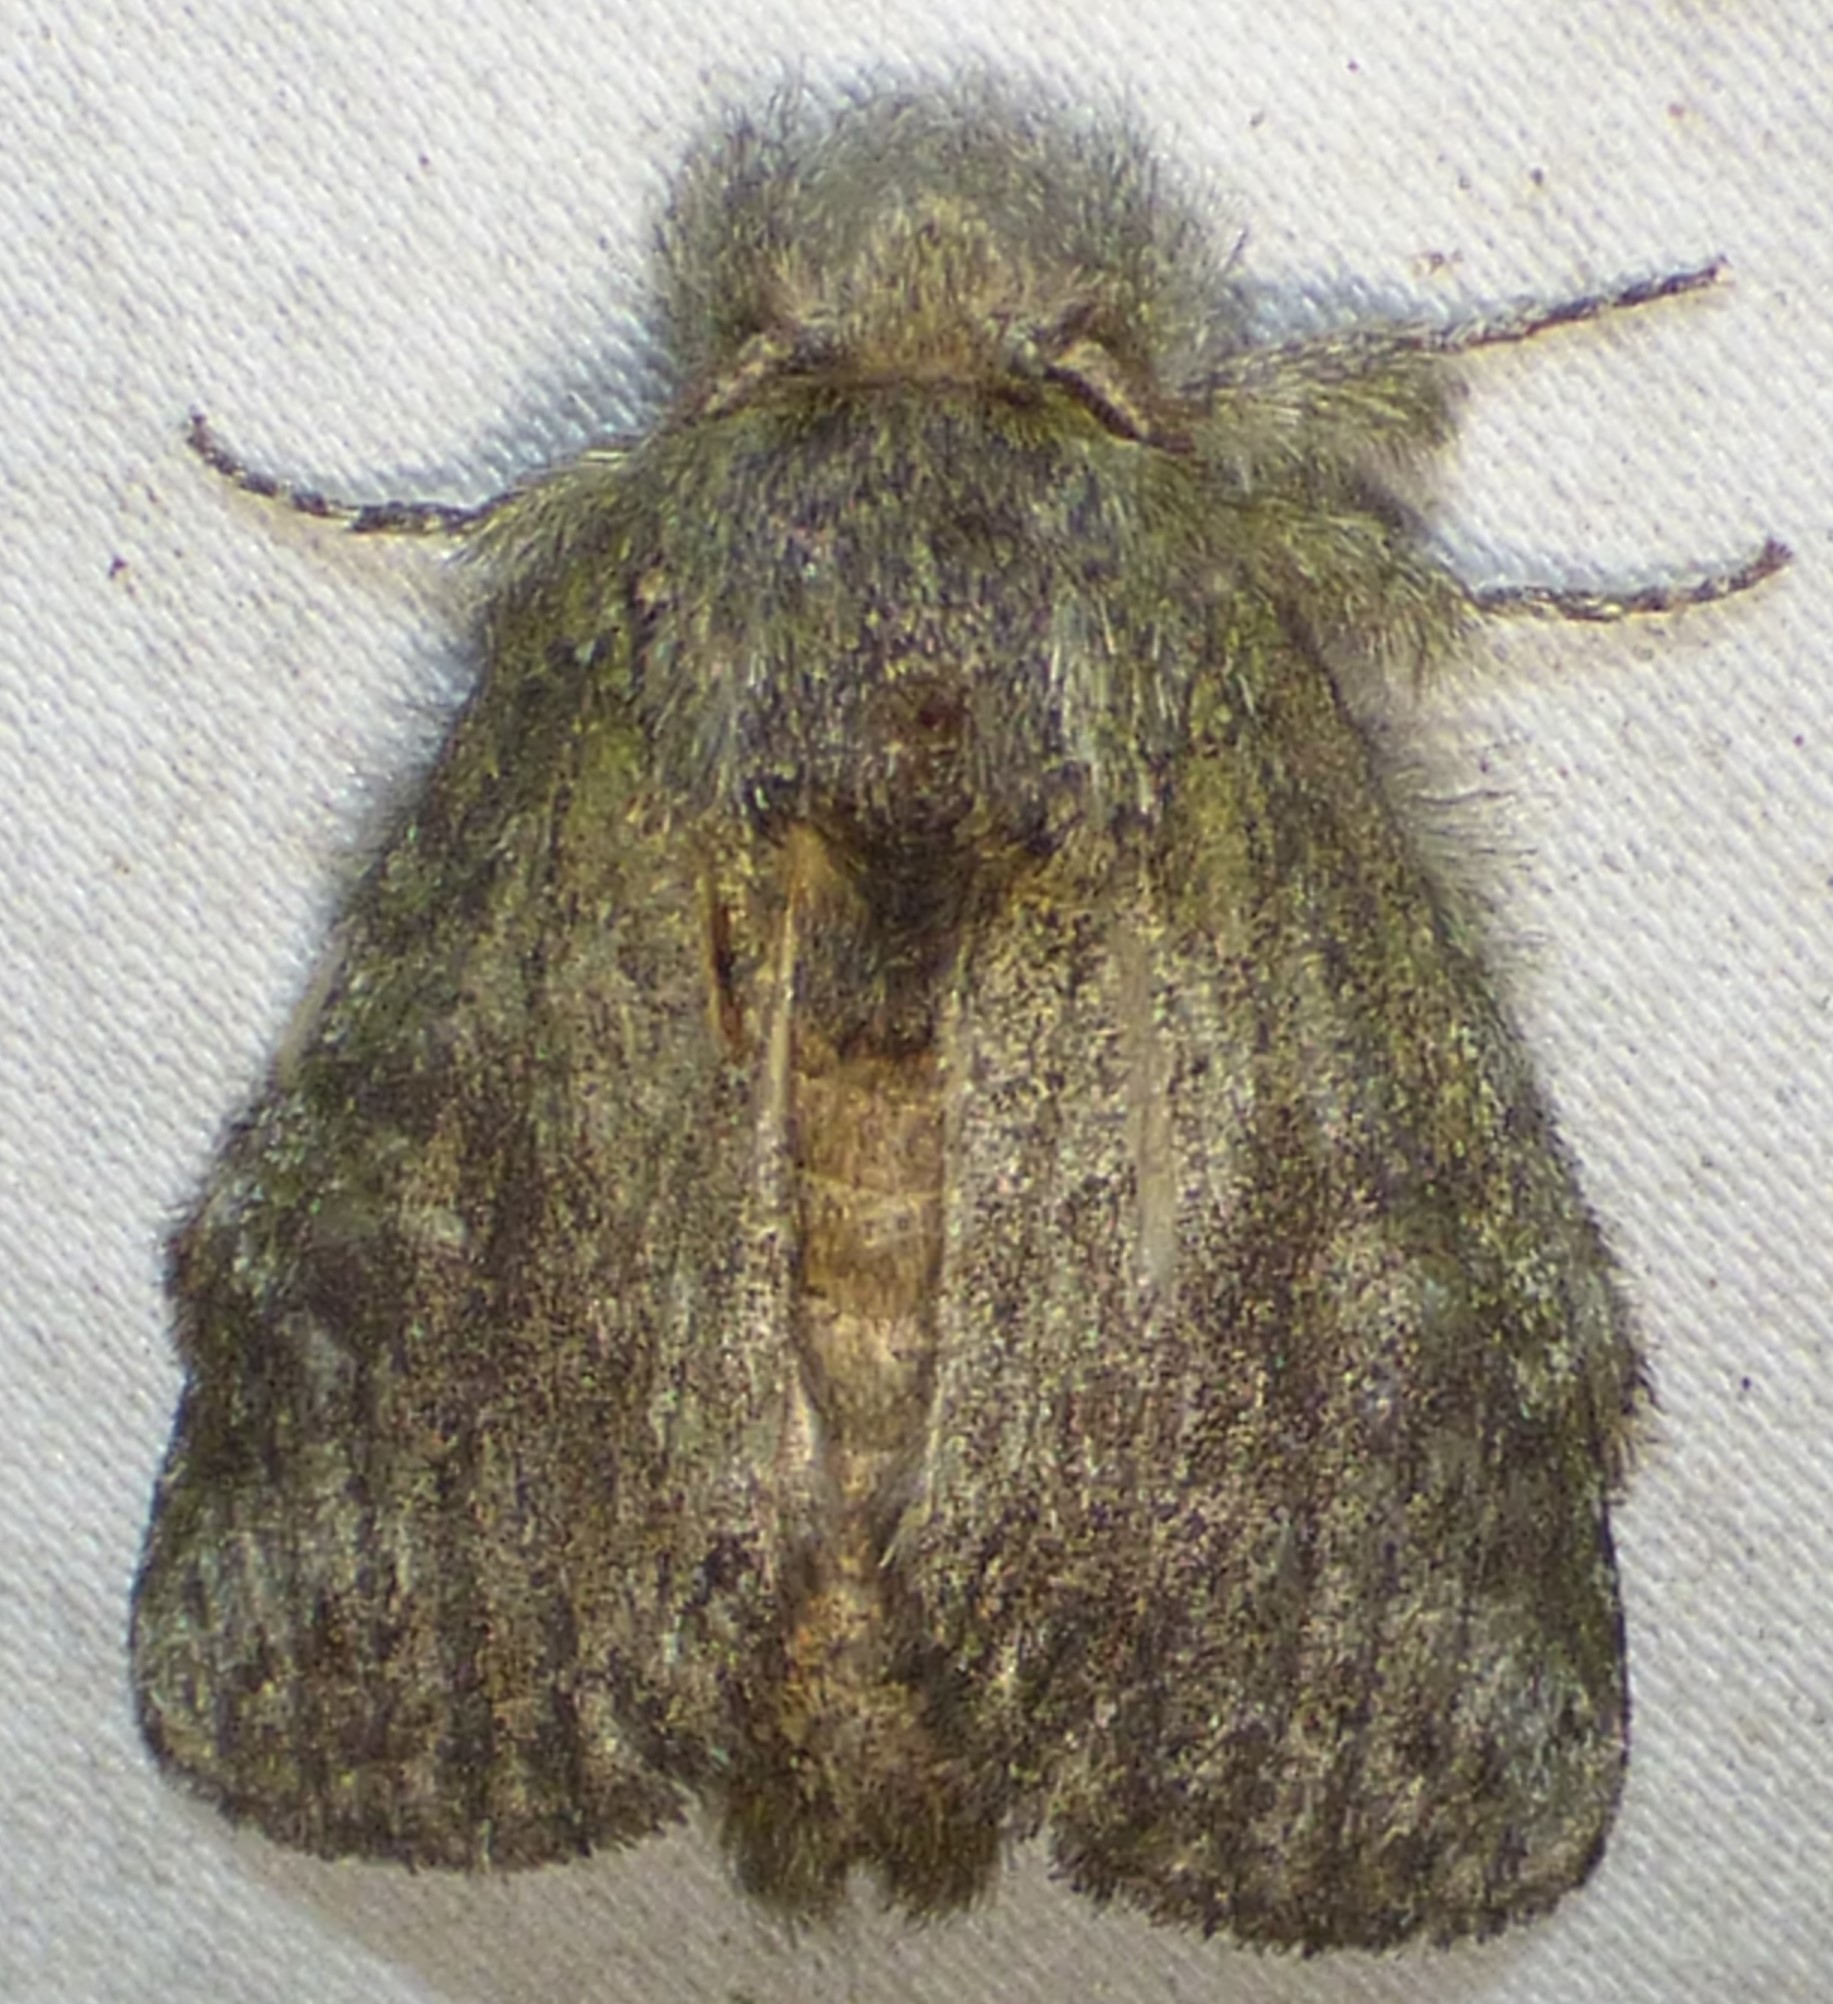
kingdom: Animalia
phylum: Arthropoda
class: Insecta
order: Lepidoptera
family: Notodontidae
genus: Disphragis
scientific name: Disphragis Cecrita guttivitta
